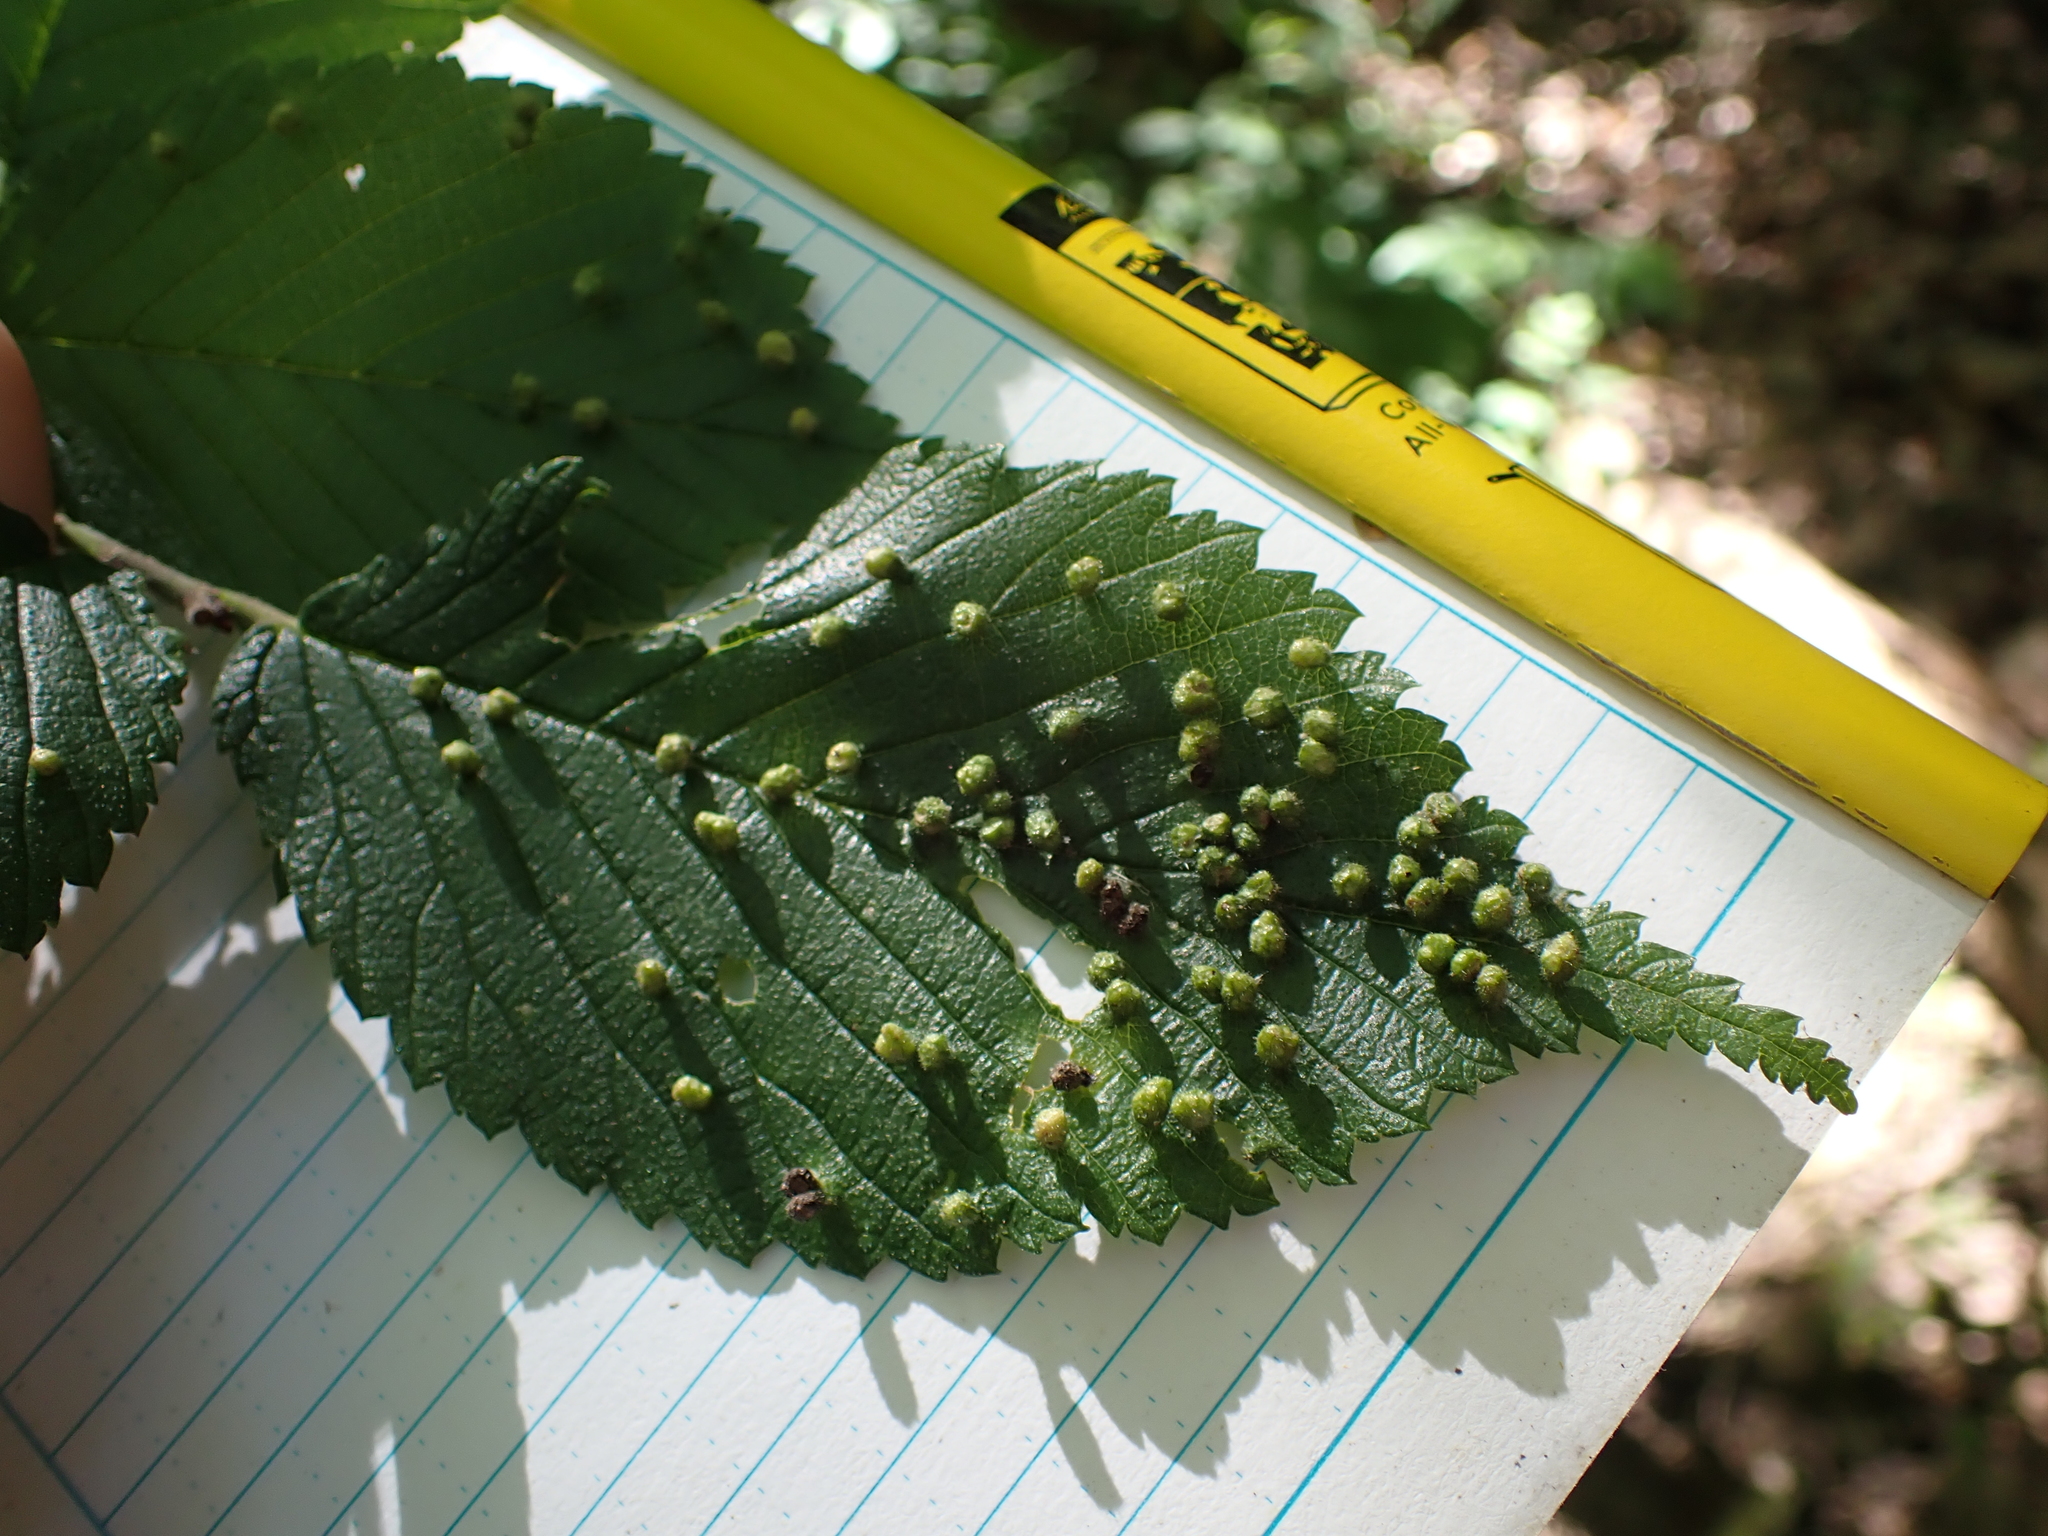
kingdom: Animalia
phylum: Arthropoda
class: Arachnida
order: Trombidiformes
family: Eriophyidae
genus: Aceria
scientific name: Aceria
